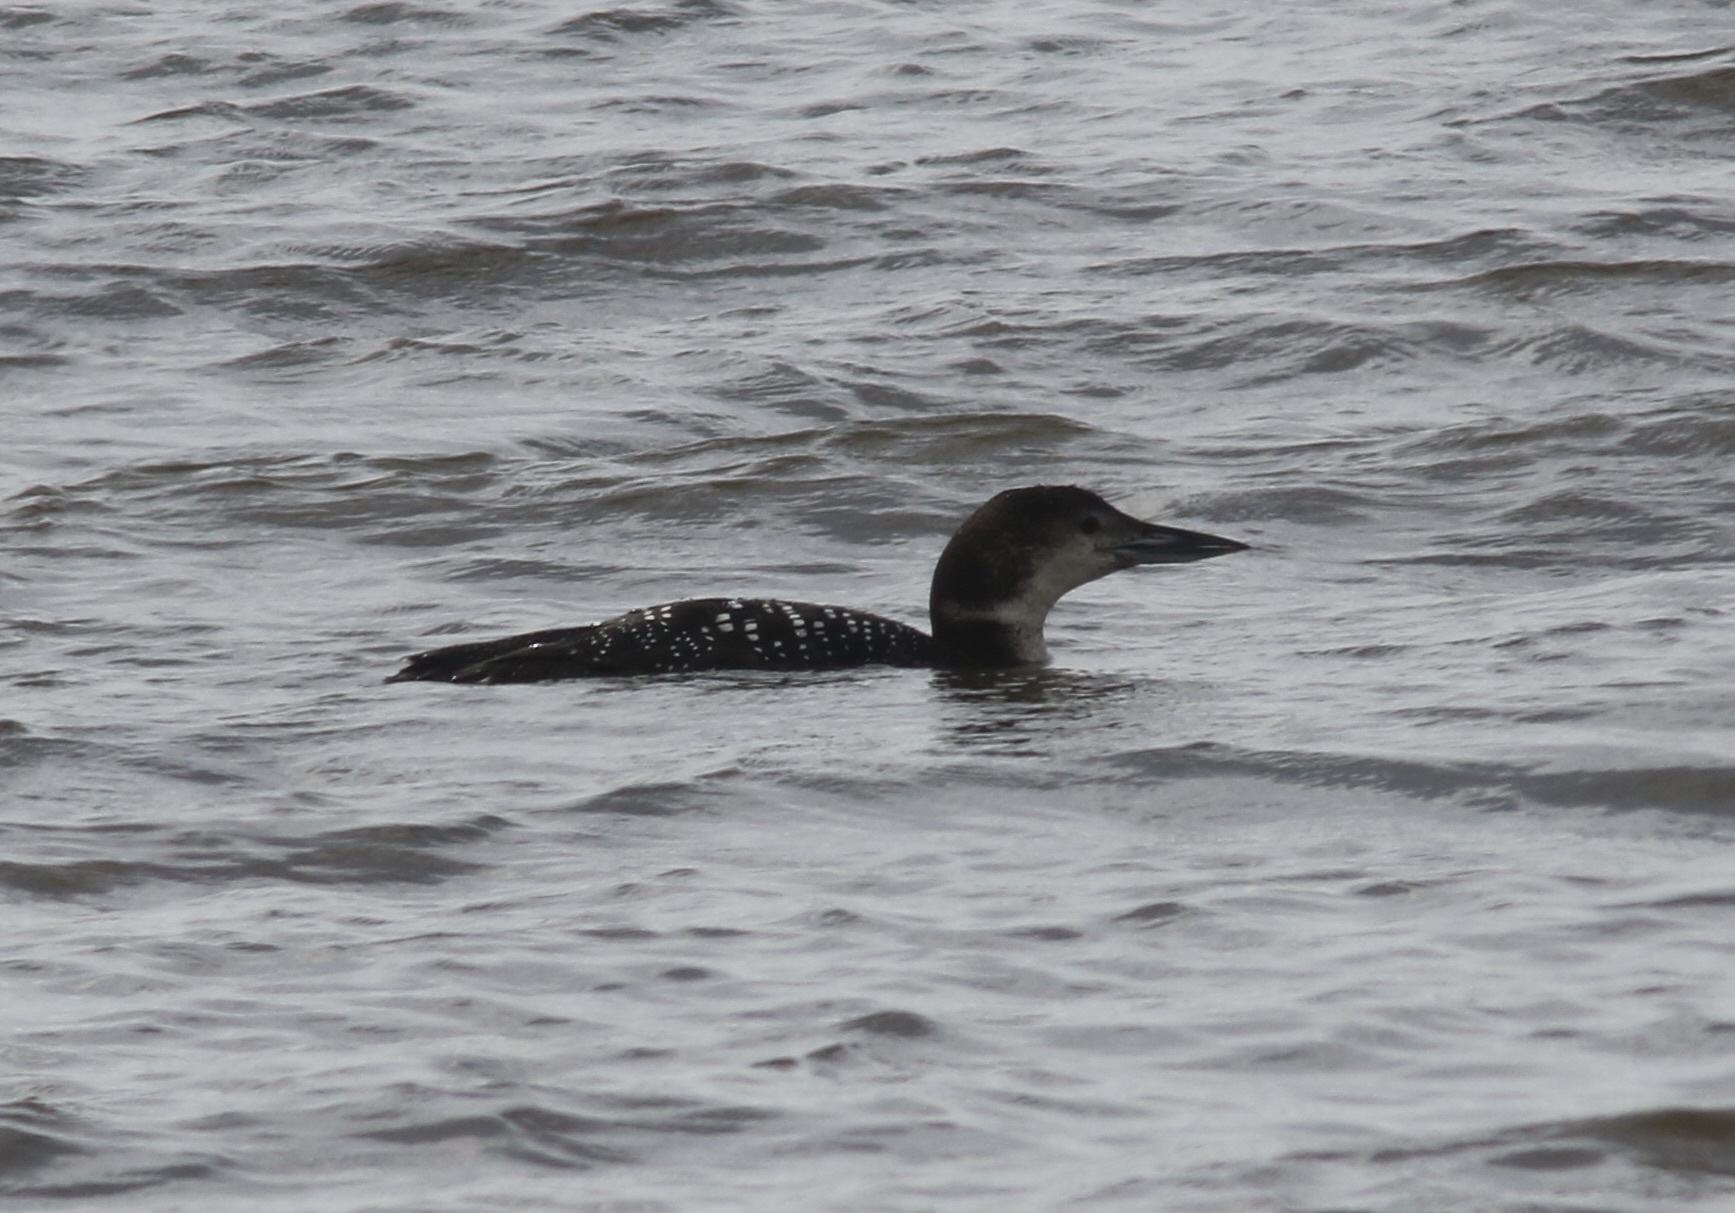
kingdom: Animalia
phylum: Chordata
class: Aves
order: Gaviiformes
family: Gaviidae
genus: Gavia
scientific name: Gavia immer
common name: Common loon
